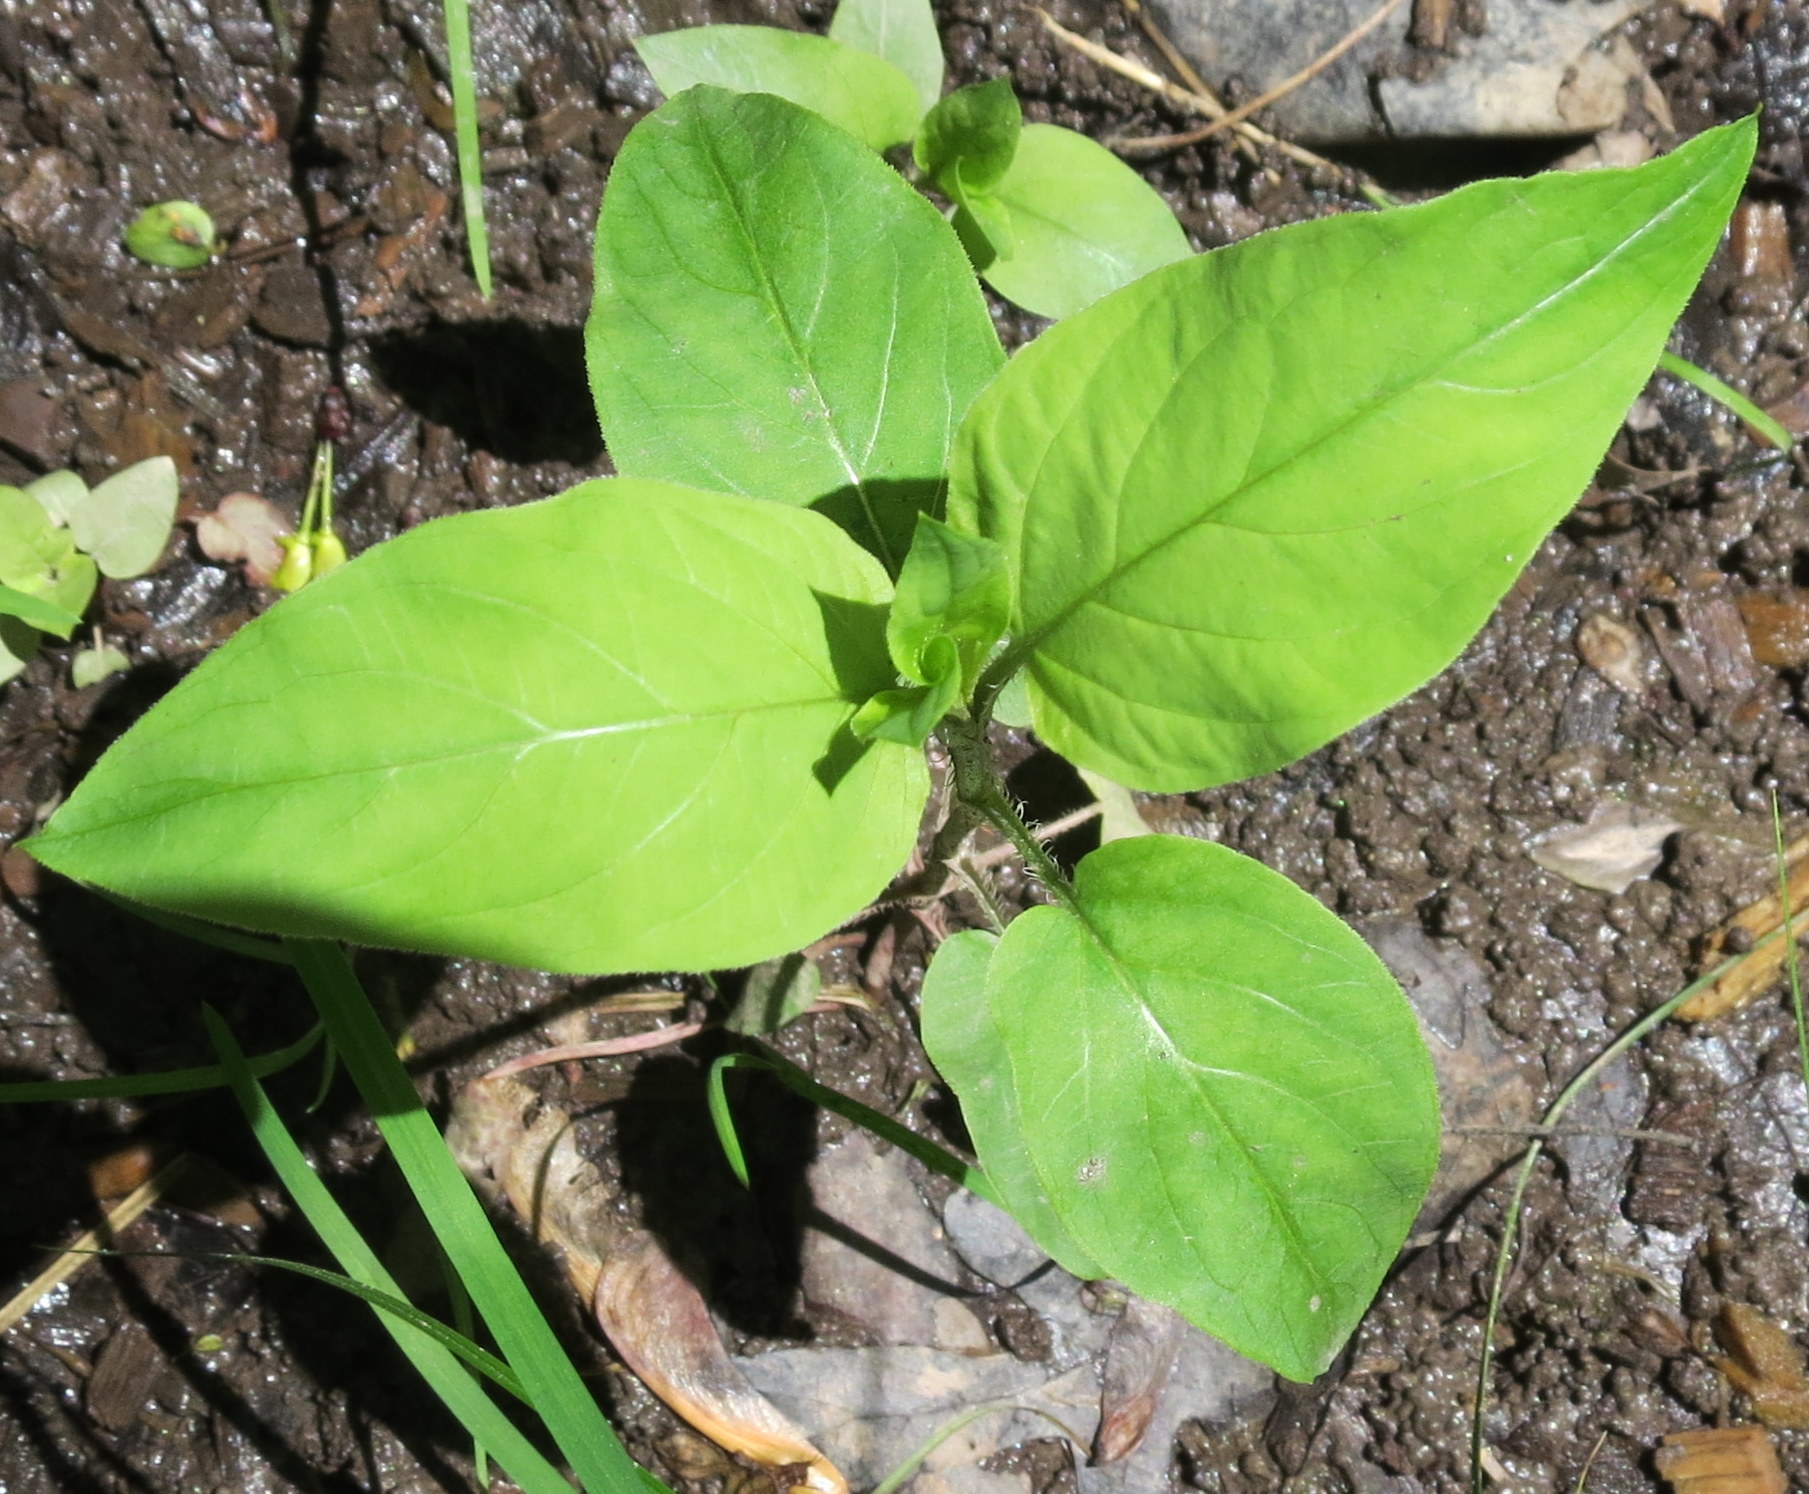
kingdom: Plantae
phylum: Tracheophyta
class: Magnoliopsida
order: Ericales
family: Primulaceae
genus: Lysimachia
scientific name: Lysimachia ciliata
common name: Fringed loosestrife
